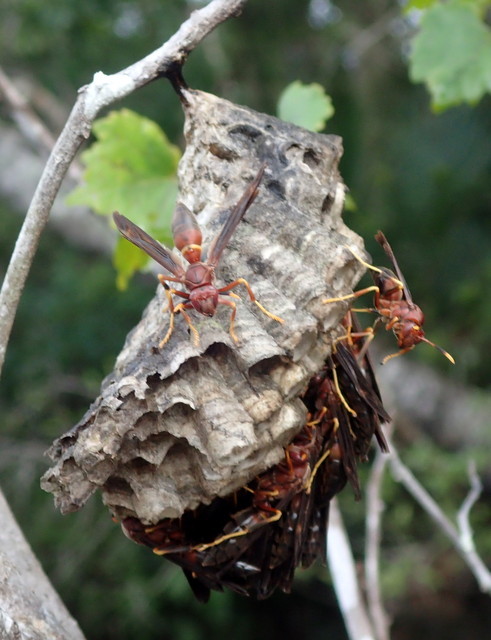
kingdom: Animalia
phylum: Arthropoda
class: Insecta
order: Hymenoptera
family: Eumenidae
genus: Polistes
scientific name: Polistes annularis
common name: Ringed paper wasp
